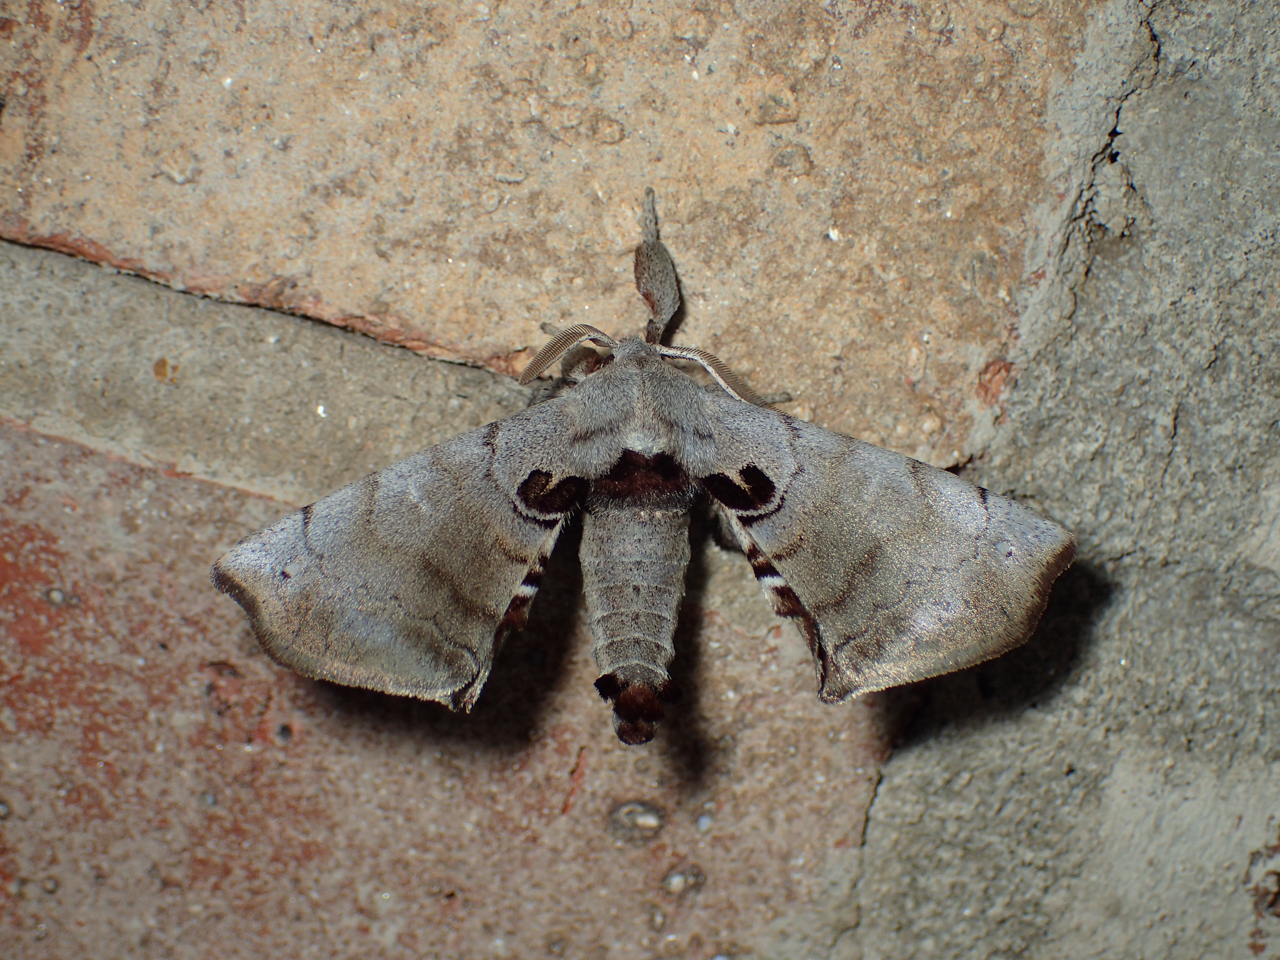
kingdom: Animalia
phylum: Arthropoda
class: Insecta
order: Lepidoptera
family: Apatelodidae
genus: Hygrochroa
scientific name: Hygrochroa Apatelodes torrefacta
